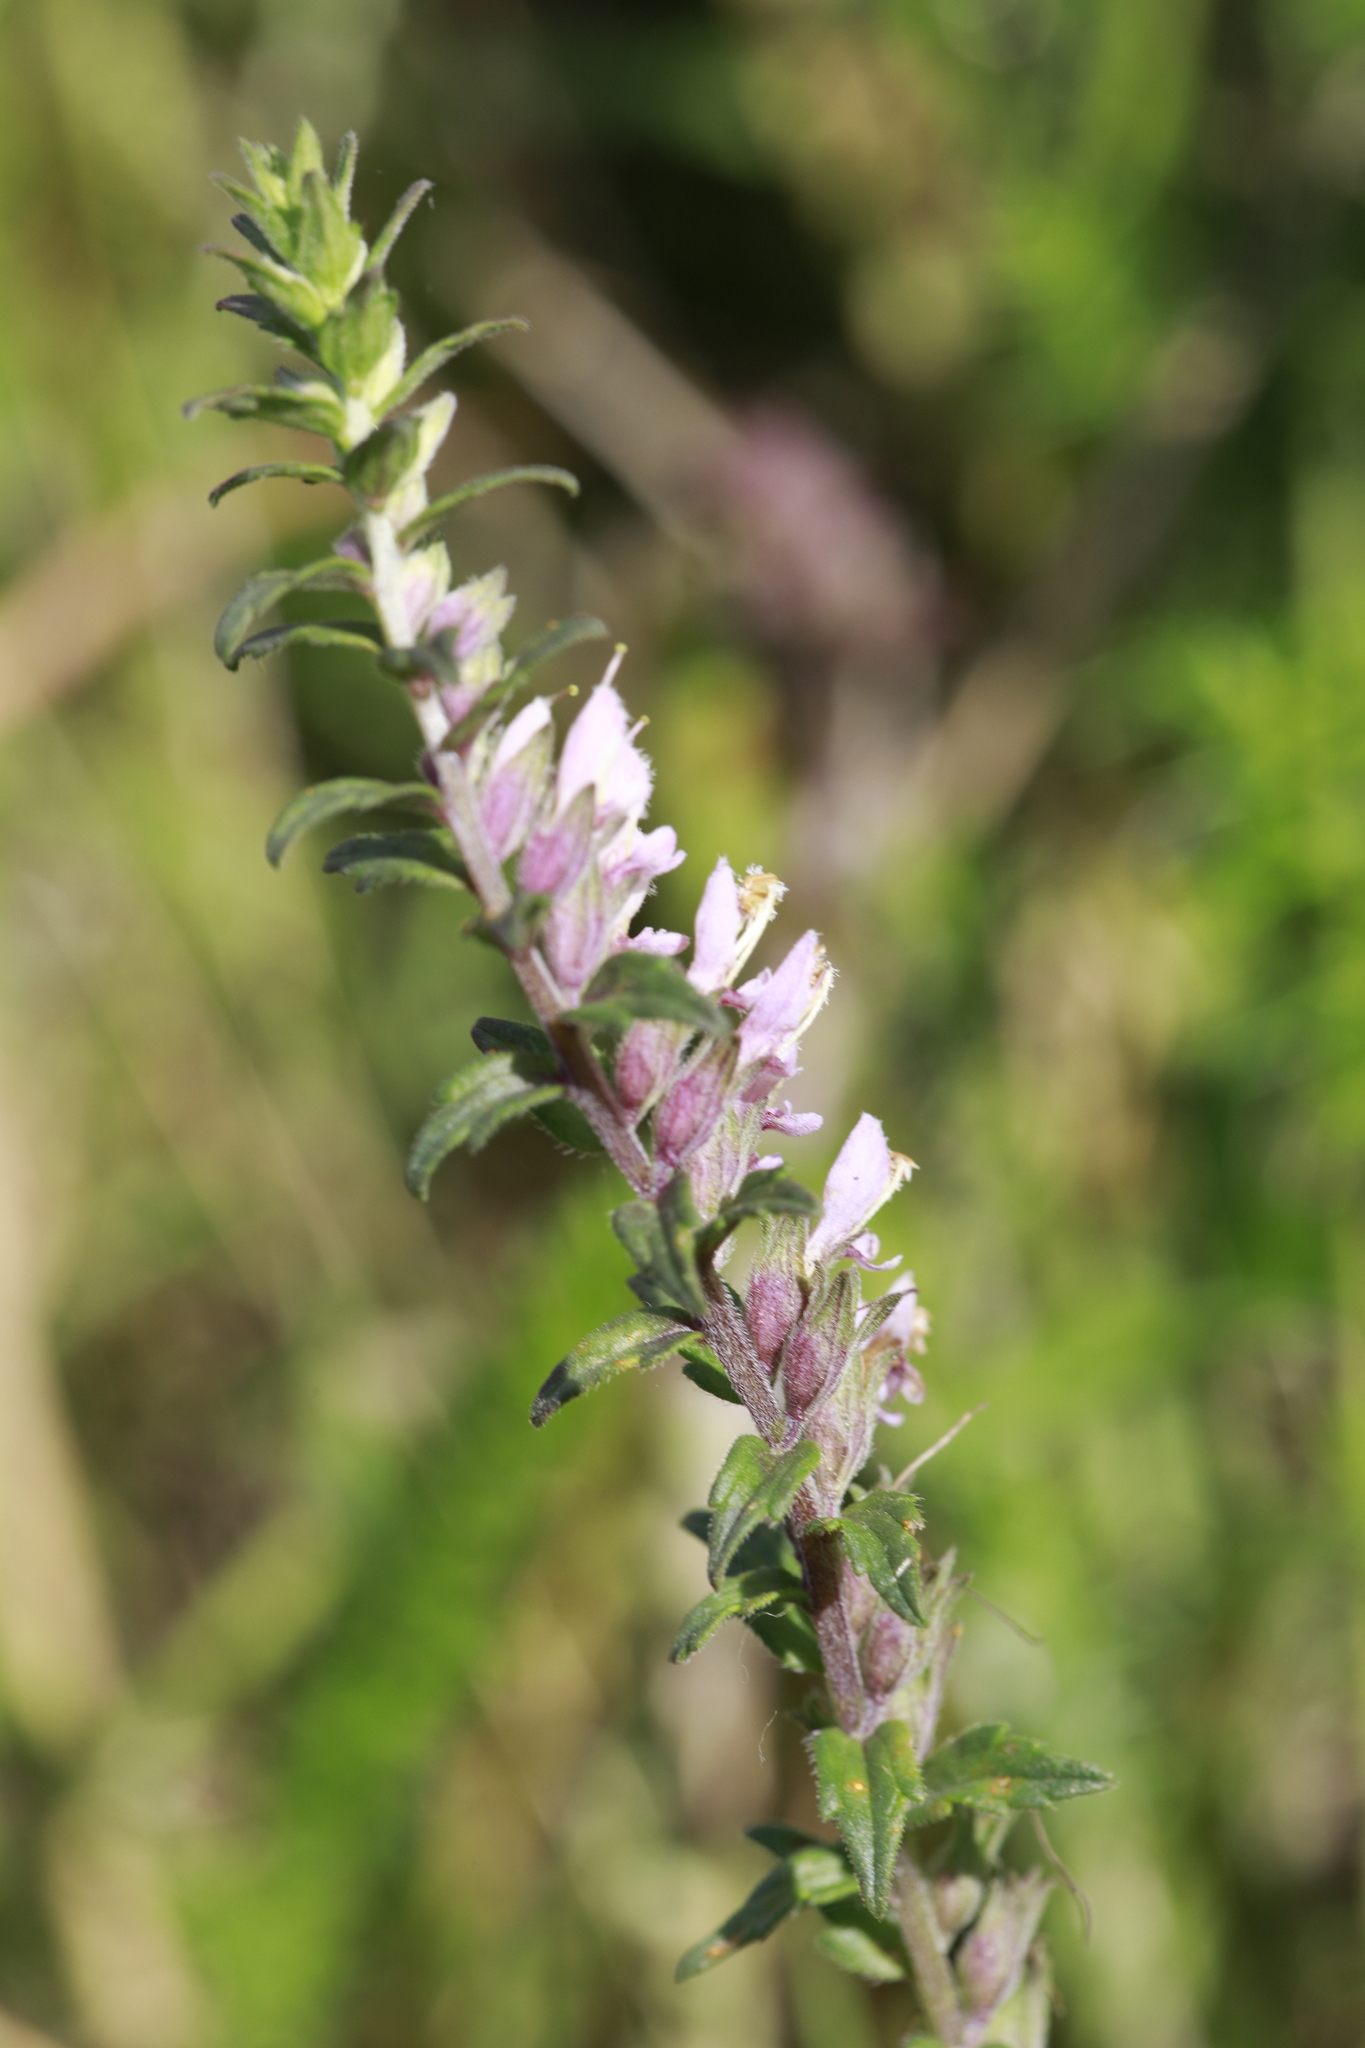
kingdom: Plantae
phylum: Tracheophyta
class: Magnoliopsida
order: Lamiales
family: Orobanchaceae
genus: Odontites
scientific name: Odontites vulgaris
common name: Broomrape
